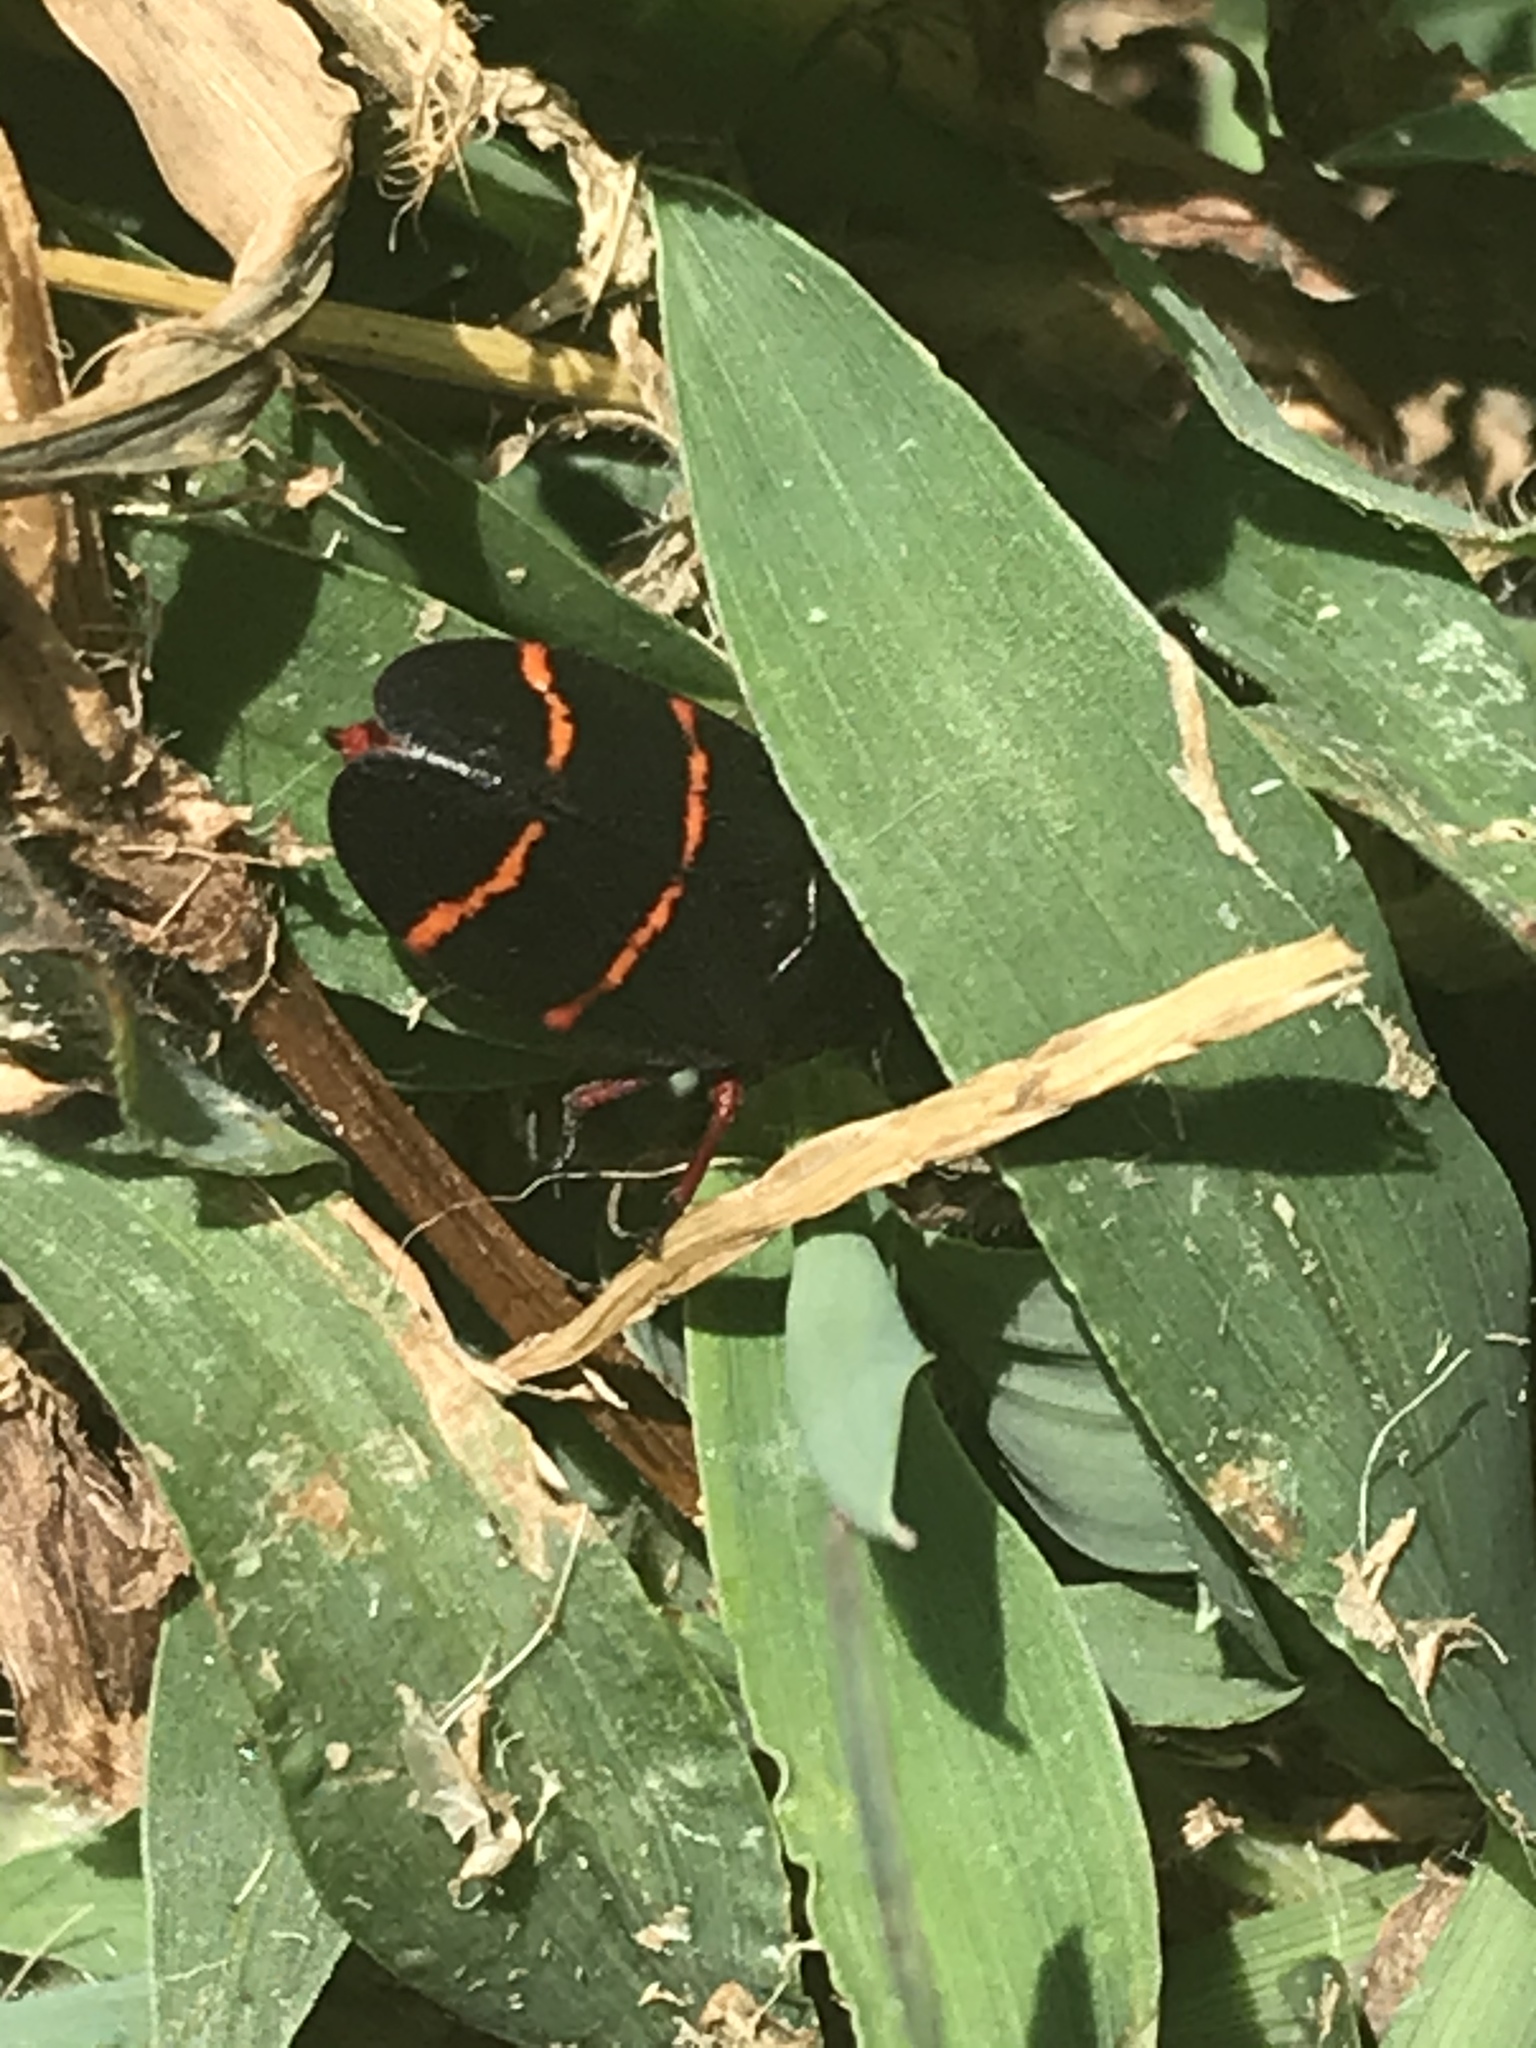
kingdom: Animalia
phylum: Arthropoda
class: Insecta
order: Hemiptera
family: Cercopidae
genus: Prosapia
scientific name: Prosapia bicincta
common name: Twolined spittlebug
